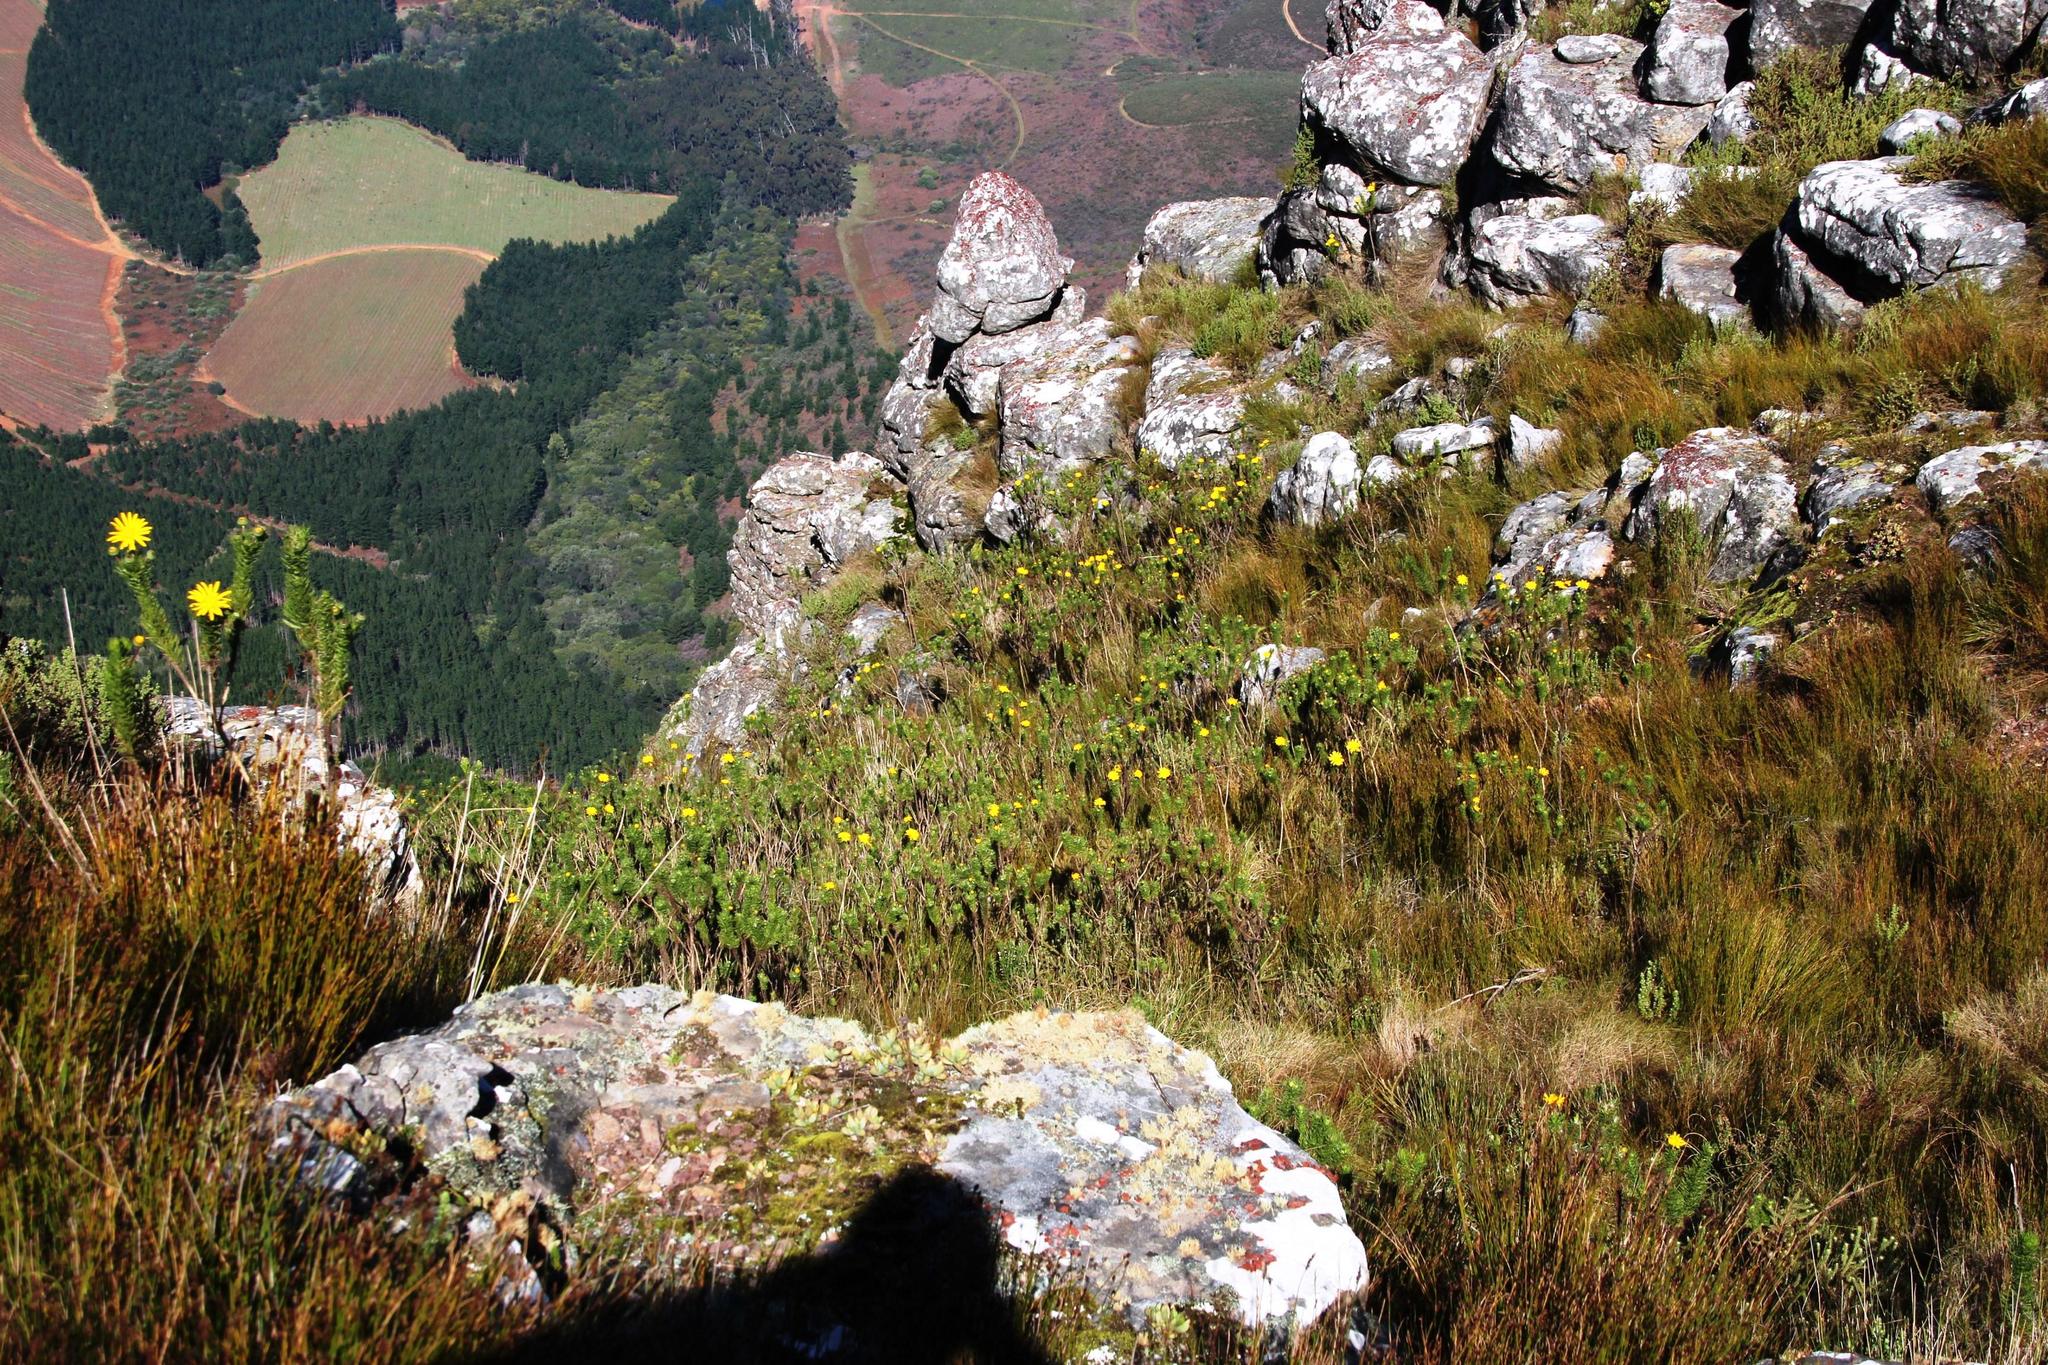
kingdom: Plantae
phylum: Tracheophyta
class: Magnoliopsida
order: Asterales
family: Asteraceae
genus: Euryops
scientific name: Euryops abrotanifolius
